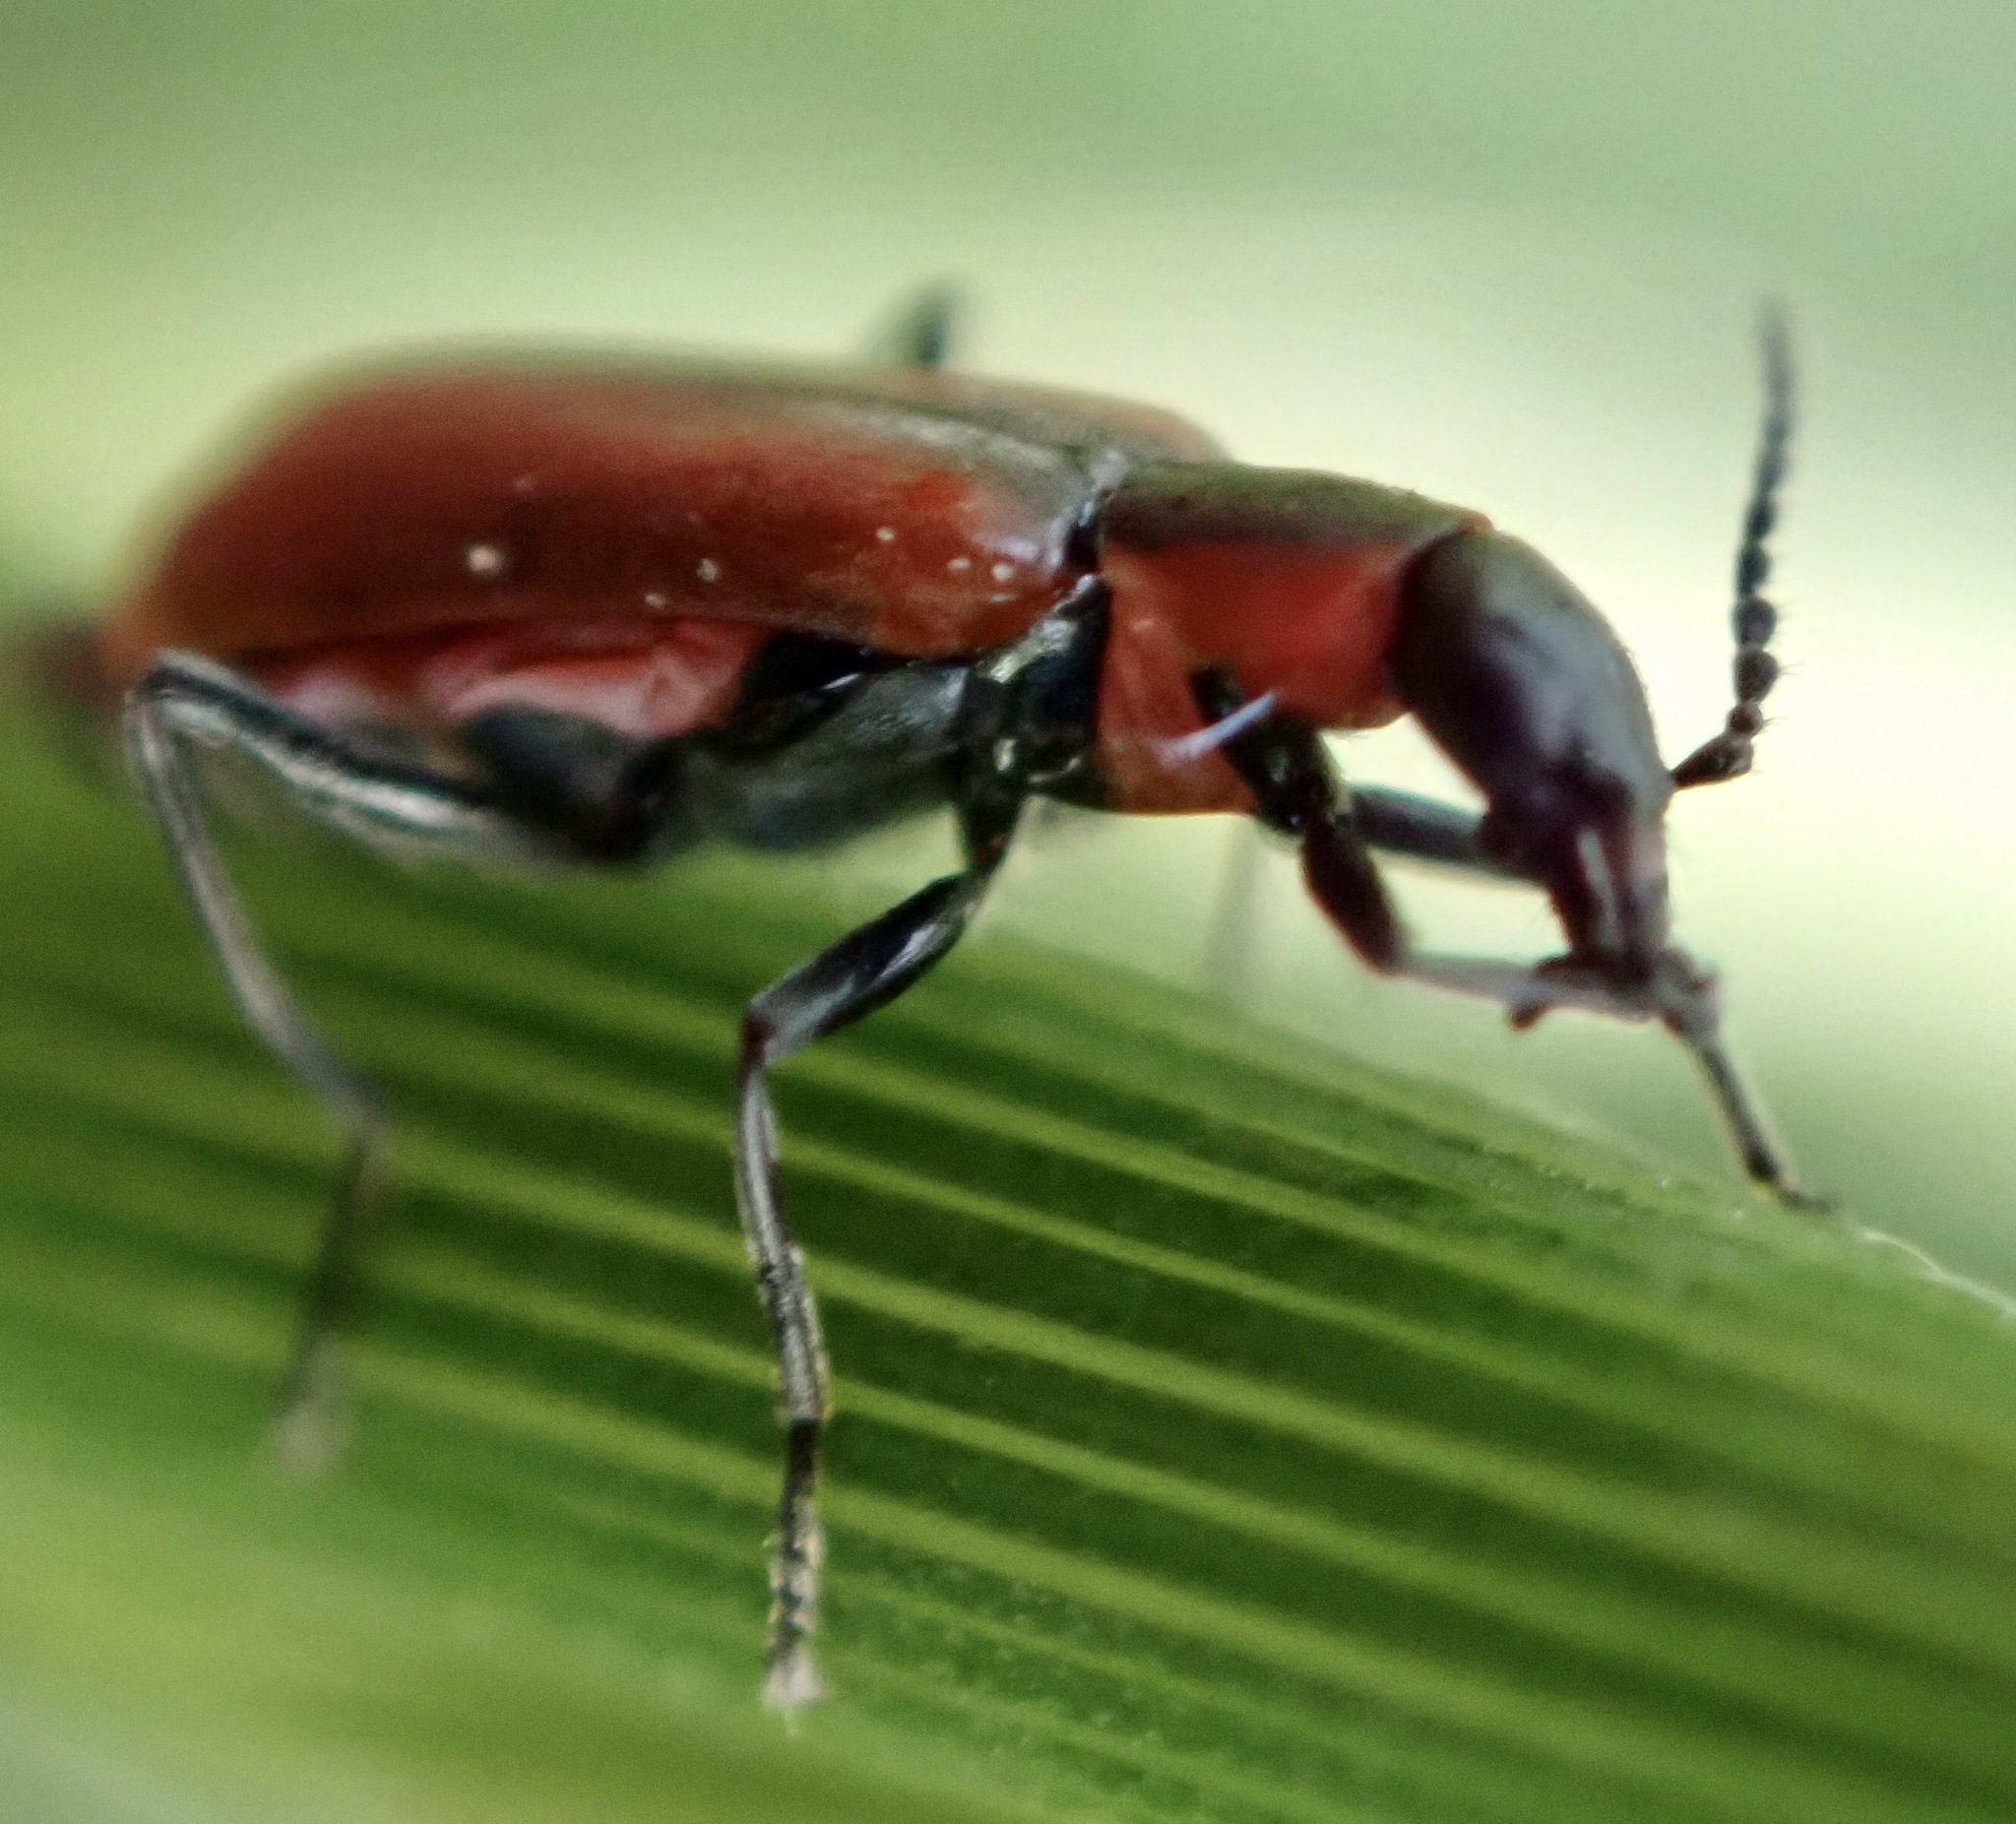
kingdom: Animalia
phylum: Arthropoda
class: Insecta
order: Coleoptera
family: Melyridae
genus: Anthocomus
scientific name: Anthocomus rufus
